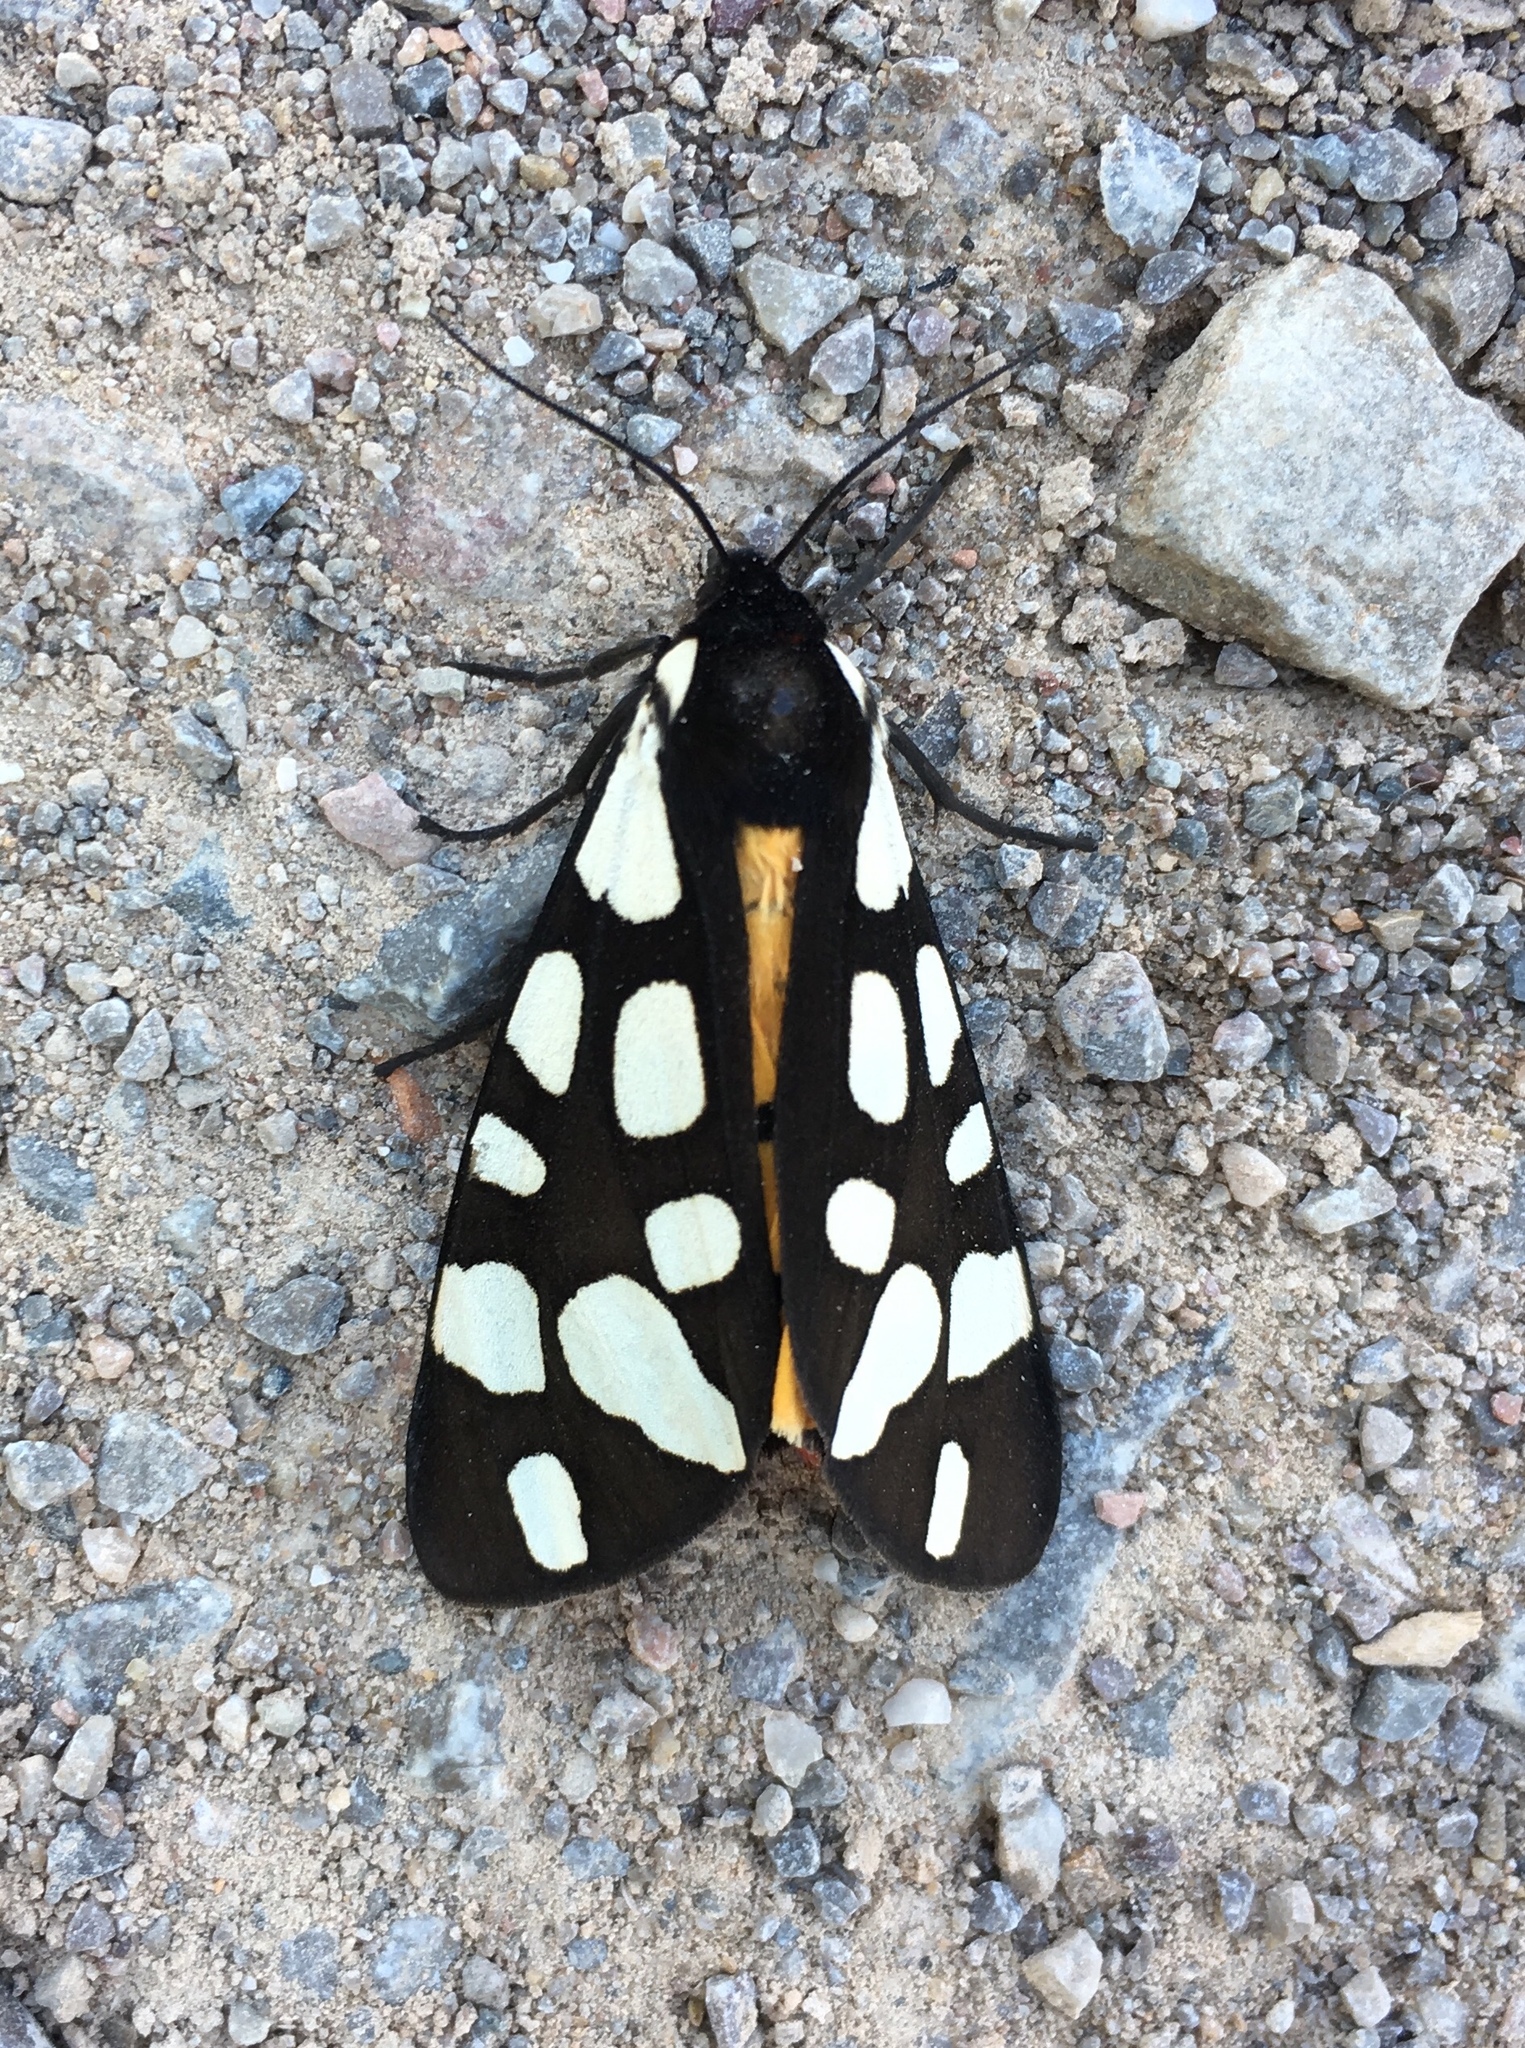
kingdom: Animalia
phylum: Arthropoda
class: Insecta
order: Lepidoptera
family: Erebidae
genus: Epicallia
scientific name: Epicallia villica
